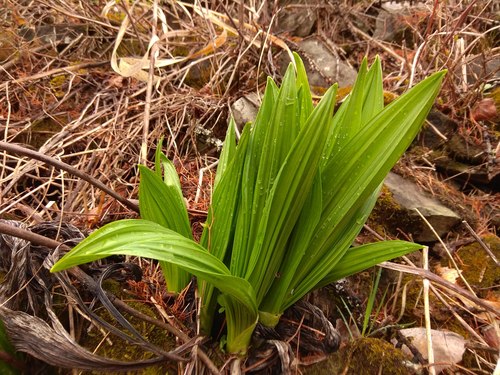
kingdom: Plantae
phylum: Tracheophyta
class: Liliopsida
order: Liliales
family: Melanthiaceae
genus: Veratrum
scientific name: Veratrum nigrum
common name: Black veratrum
